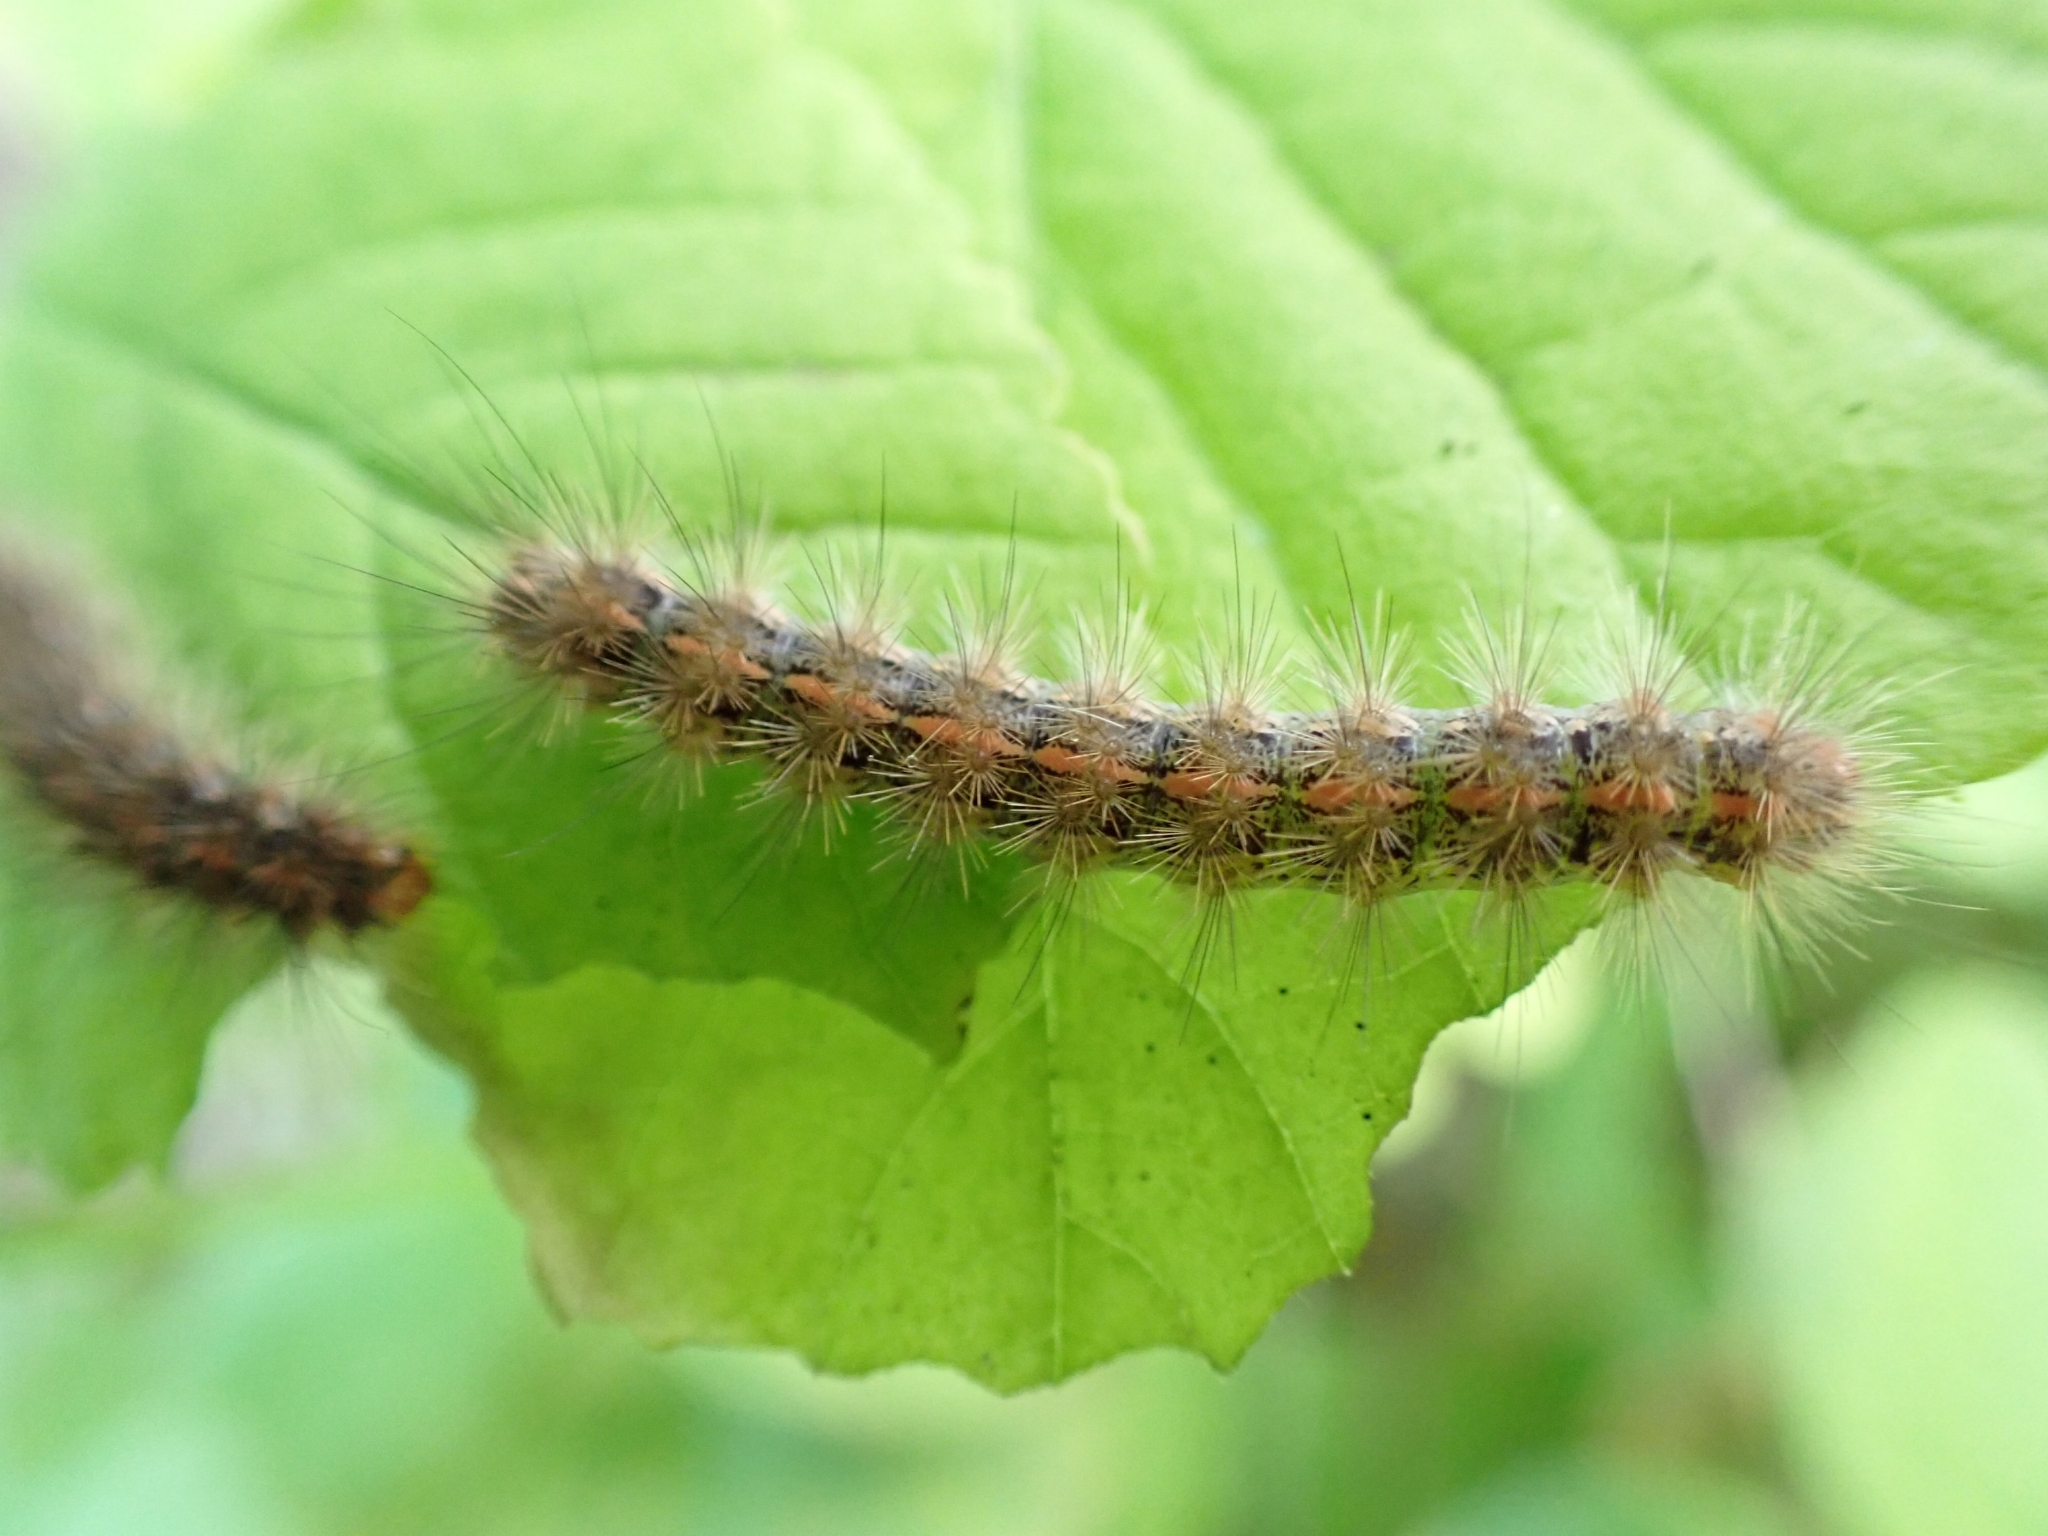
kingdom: Animalia
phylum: Arthropoda
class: Insecta
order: Lepidoptera
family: Erebidae
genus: Canararctia
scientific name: Canararctia rufescens
